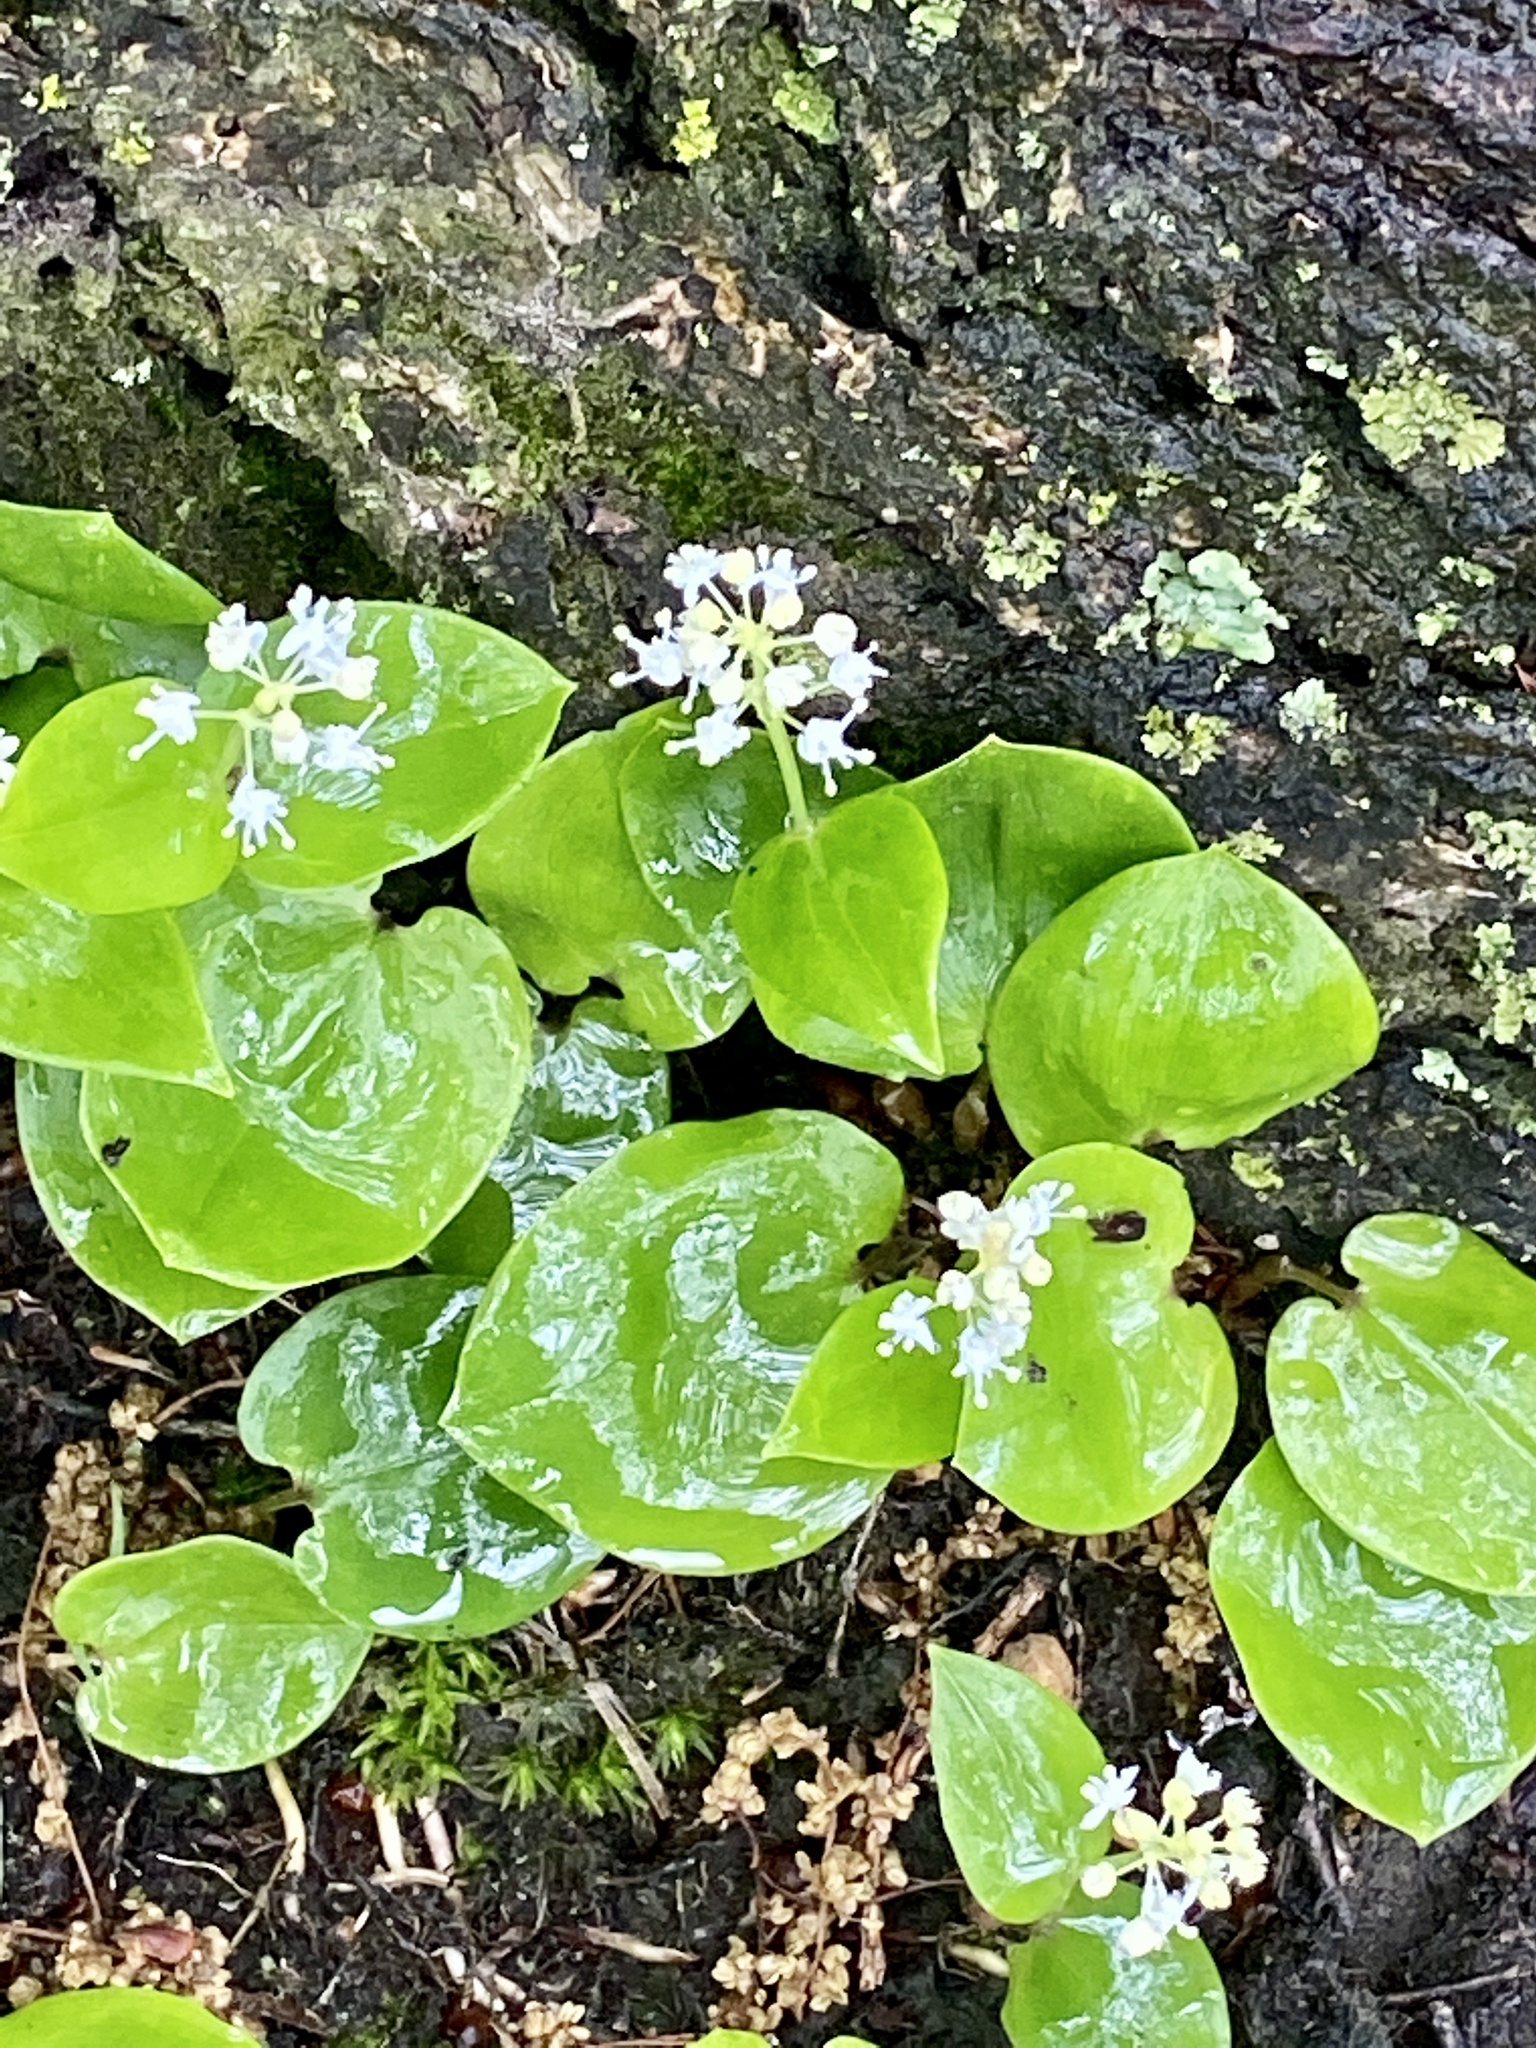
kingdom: Plantae
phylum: Tracheophyta
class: Liliopsida
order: Asparagales
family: Asparagaceae
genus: Maianthemum
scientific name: Maianthemum canadense
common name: False lily-of-the-valley
